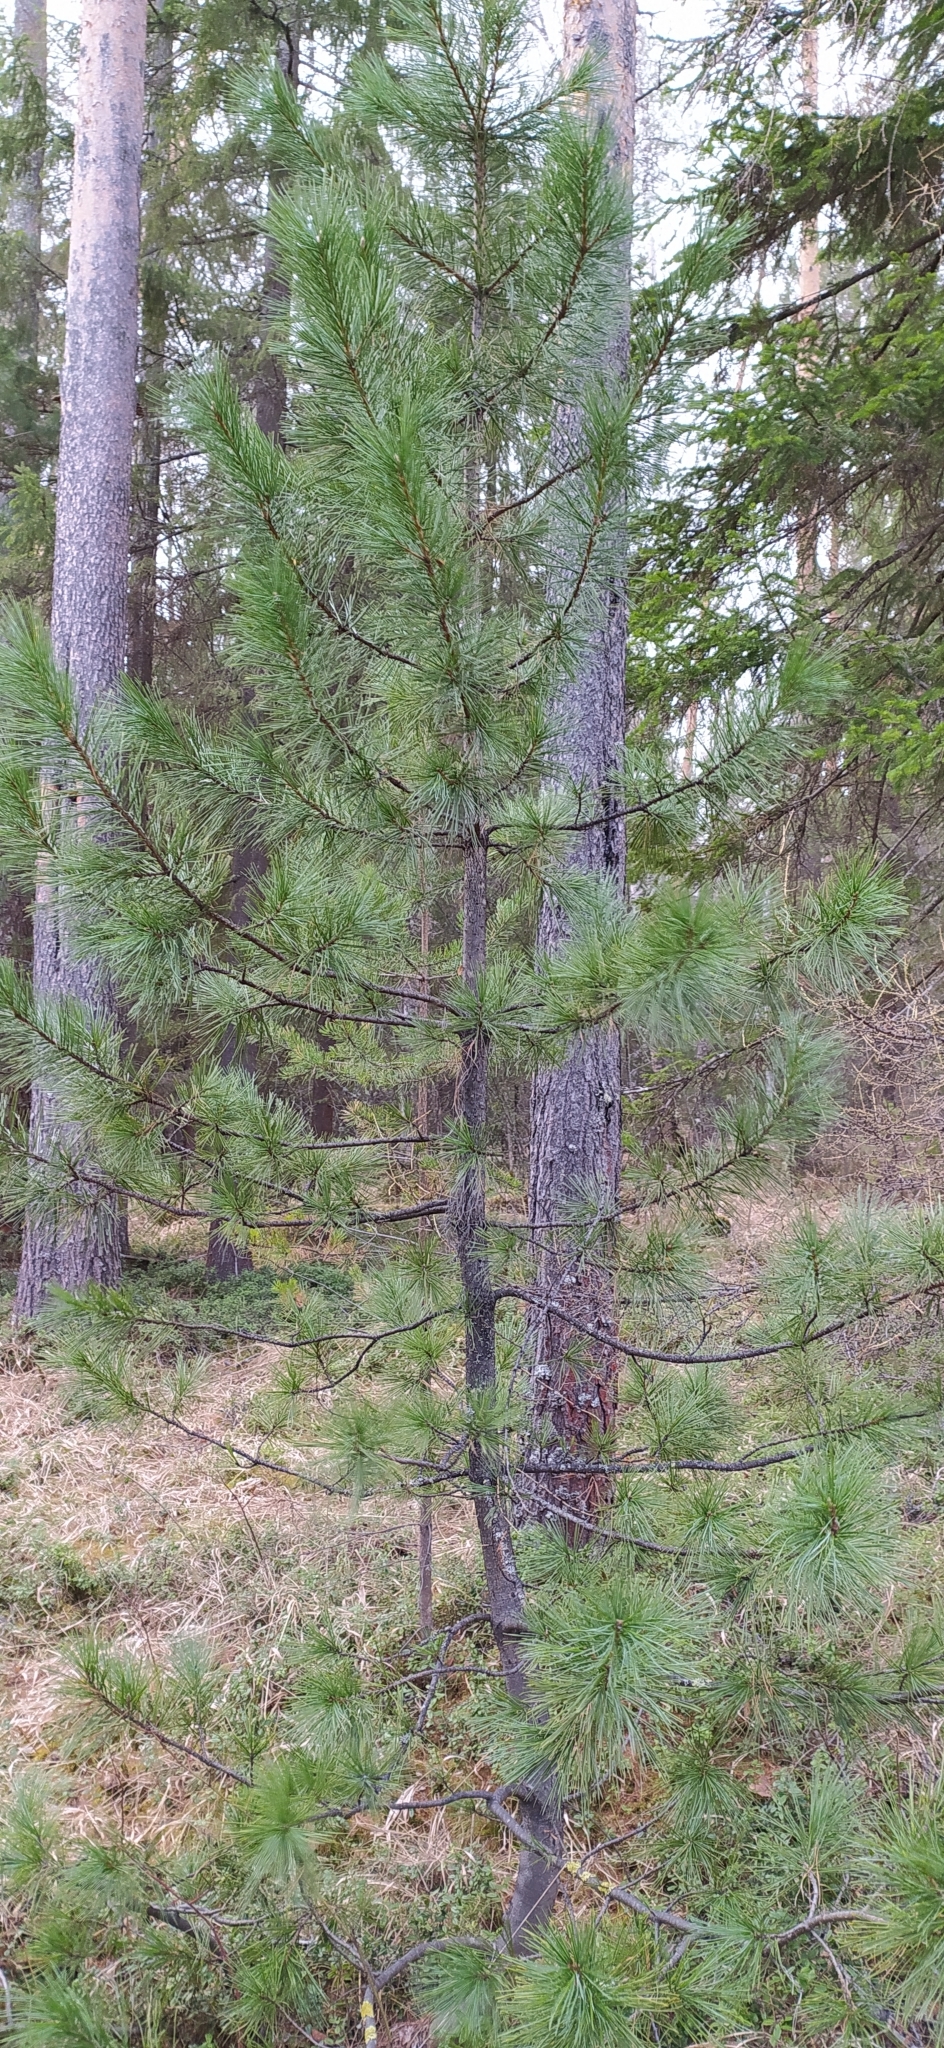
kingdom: Plantae
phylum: Tracheophyta
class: Pinopsida
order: Pinales
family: Pinaceae
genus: Pinus
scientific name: Pinus sibirica
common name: Siberian pine
